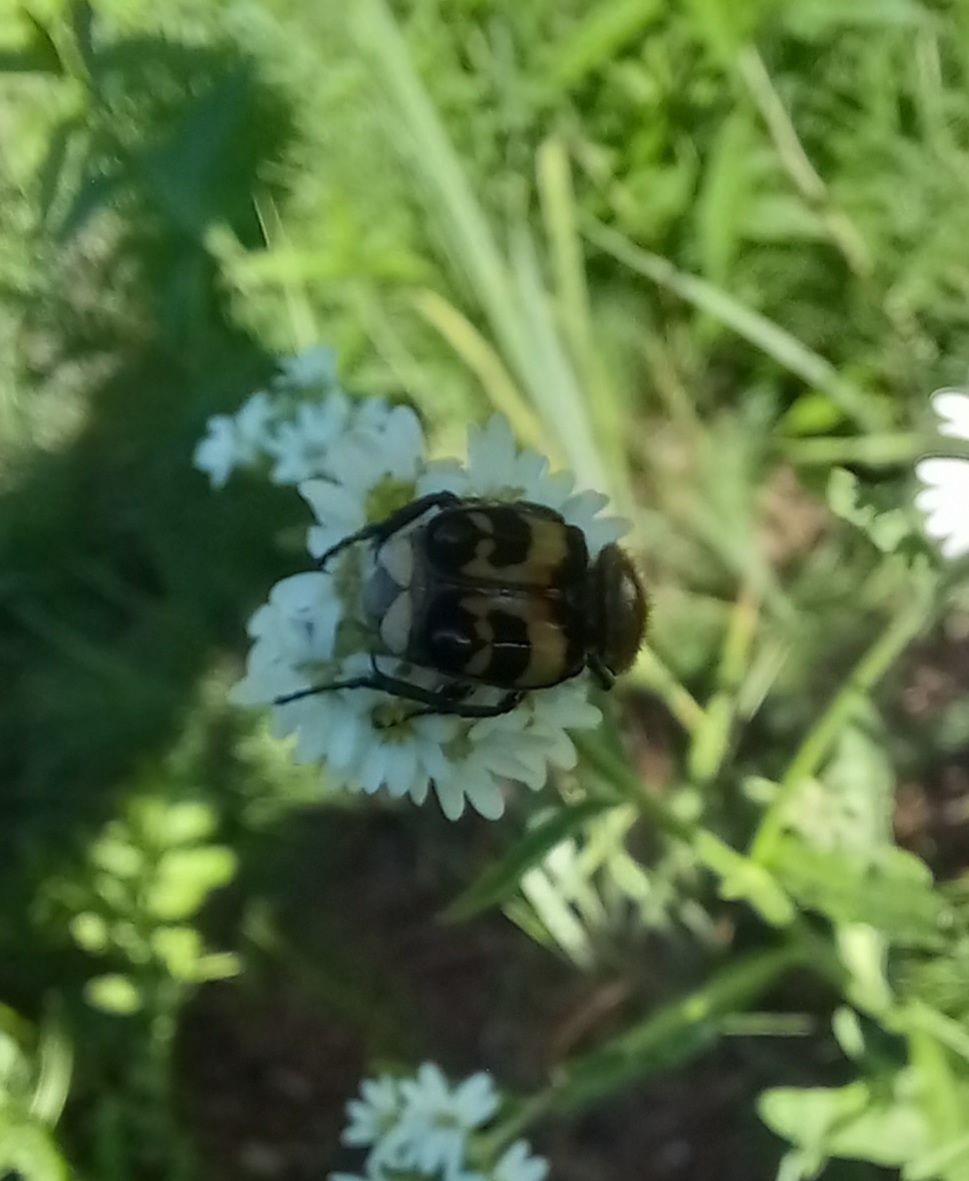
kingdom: Animalia
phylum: Arthropoda
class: Insecta
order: Coleoptera
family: Scarabaeidae
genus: Trichius
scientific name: Trichius fasciatus
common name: Bee beetle
